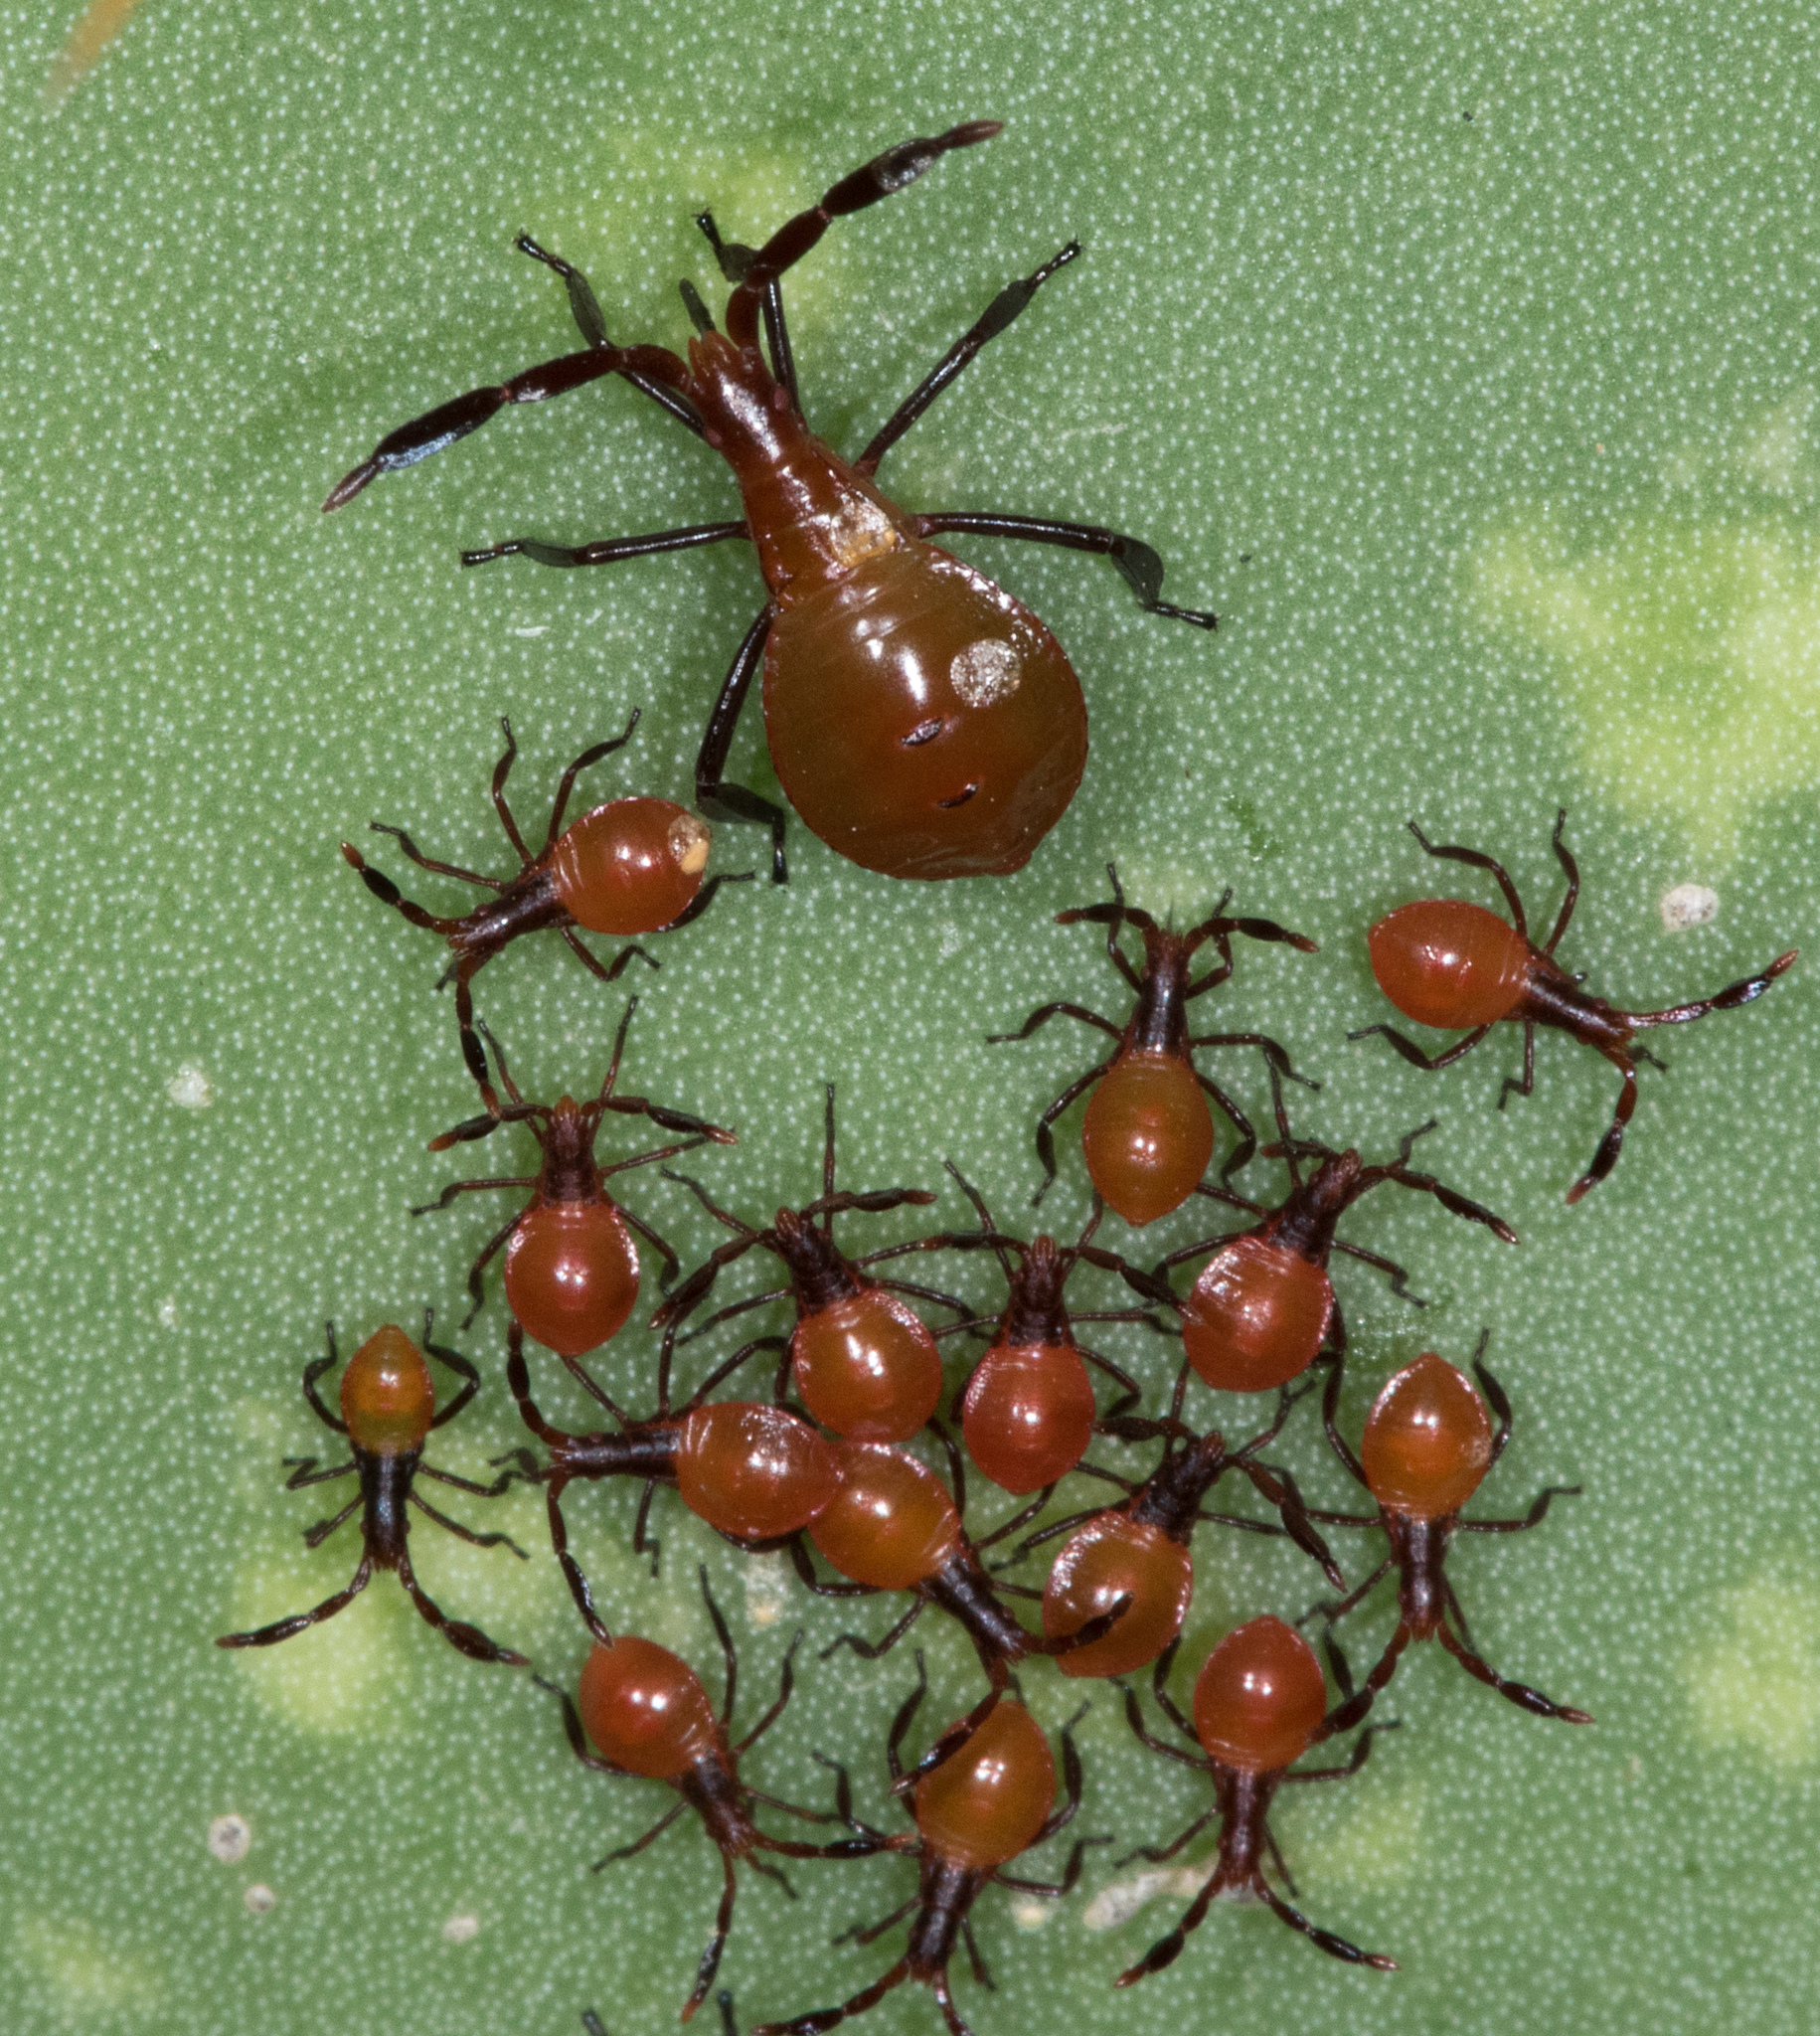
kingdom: Animalia
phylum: Arthropoda
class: Insecta
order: Hemiptera
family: Coreidae
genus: Chelinidea
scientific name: Chelinidea vittiger
